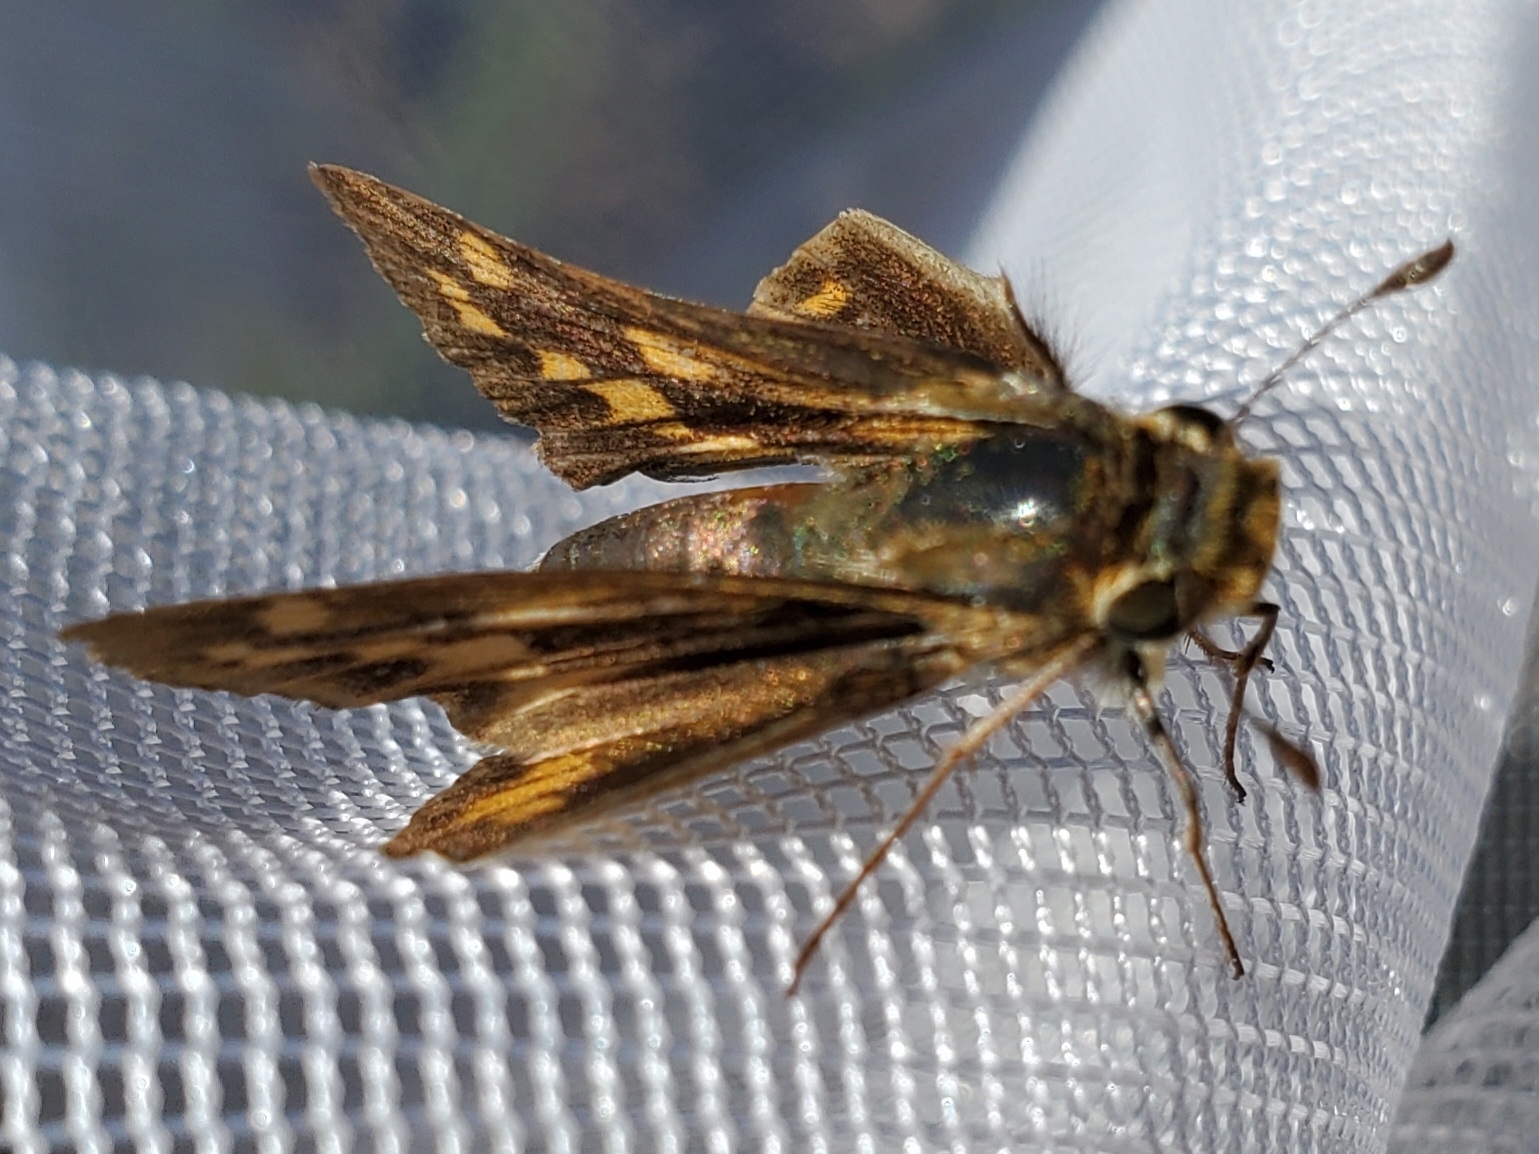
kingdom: Animalia
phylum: Arthropoda
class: Insecta
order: Lepidoptera
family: Hesperiidae
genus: Hylephila
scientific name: Hylephila phyleus
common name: Fiery skipper
